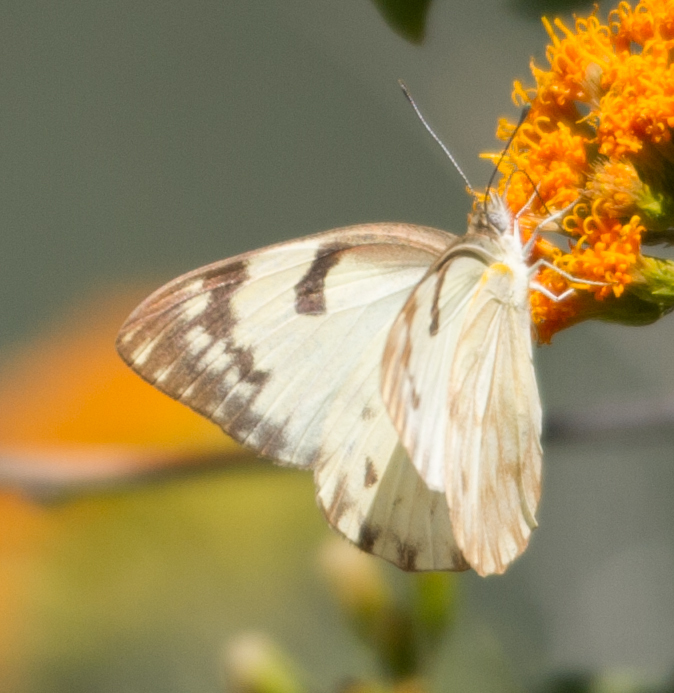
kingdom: Animalia
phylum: Arthropoda
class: Insecta
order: Lepidoptera
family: Pieridae
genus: Belenois
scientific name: Belenois gidica
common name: Pointed caper white
